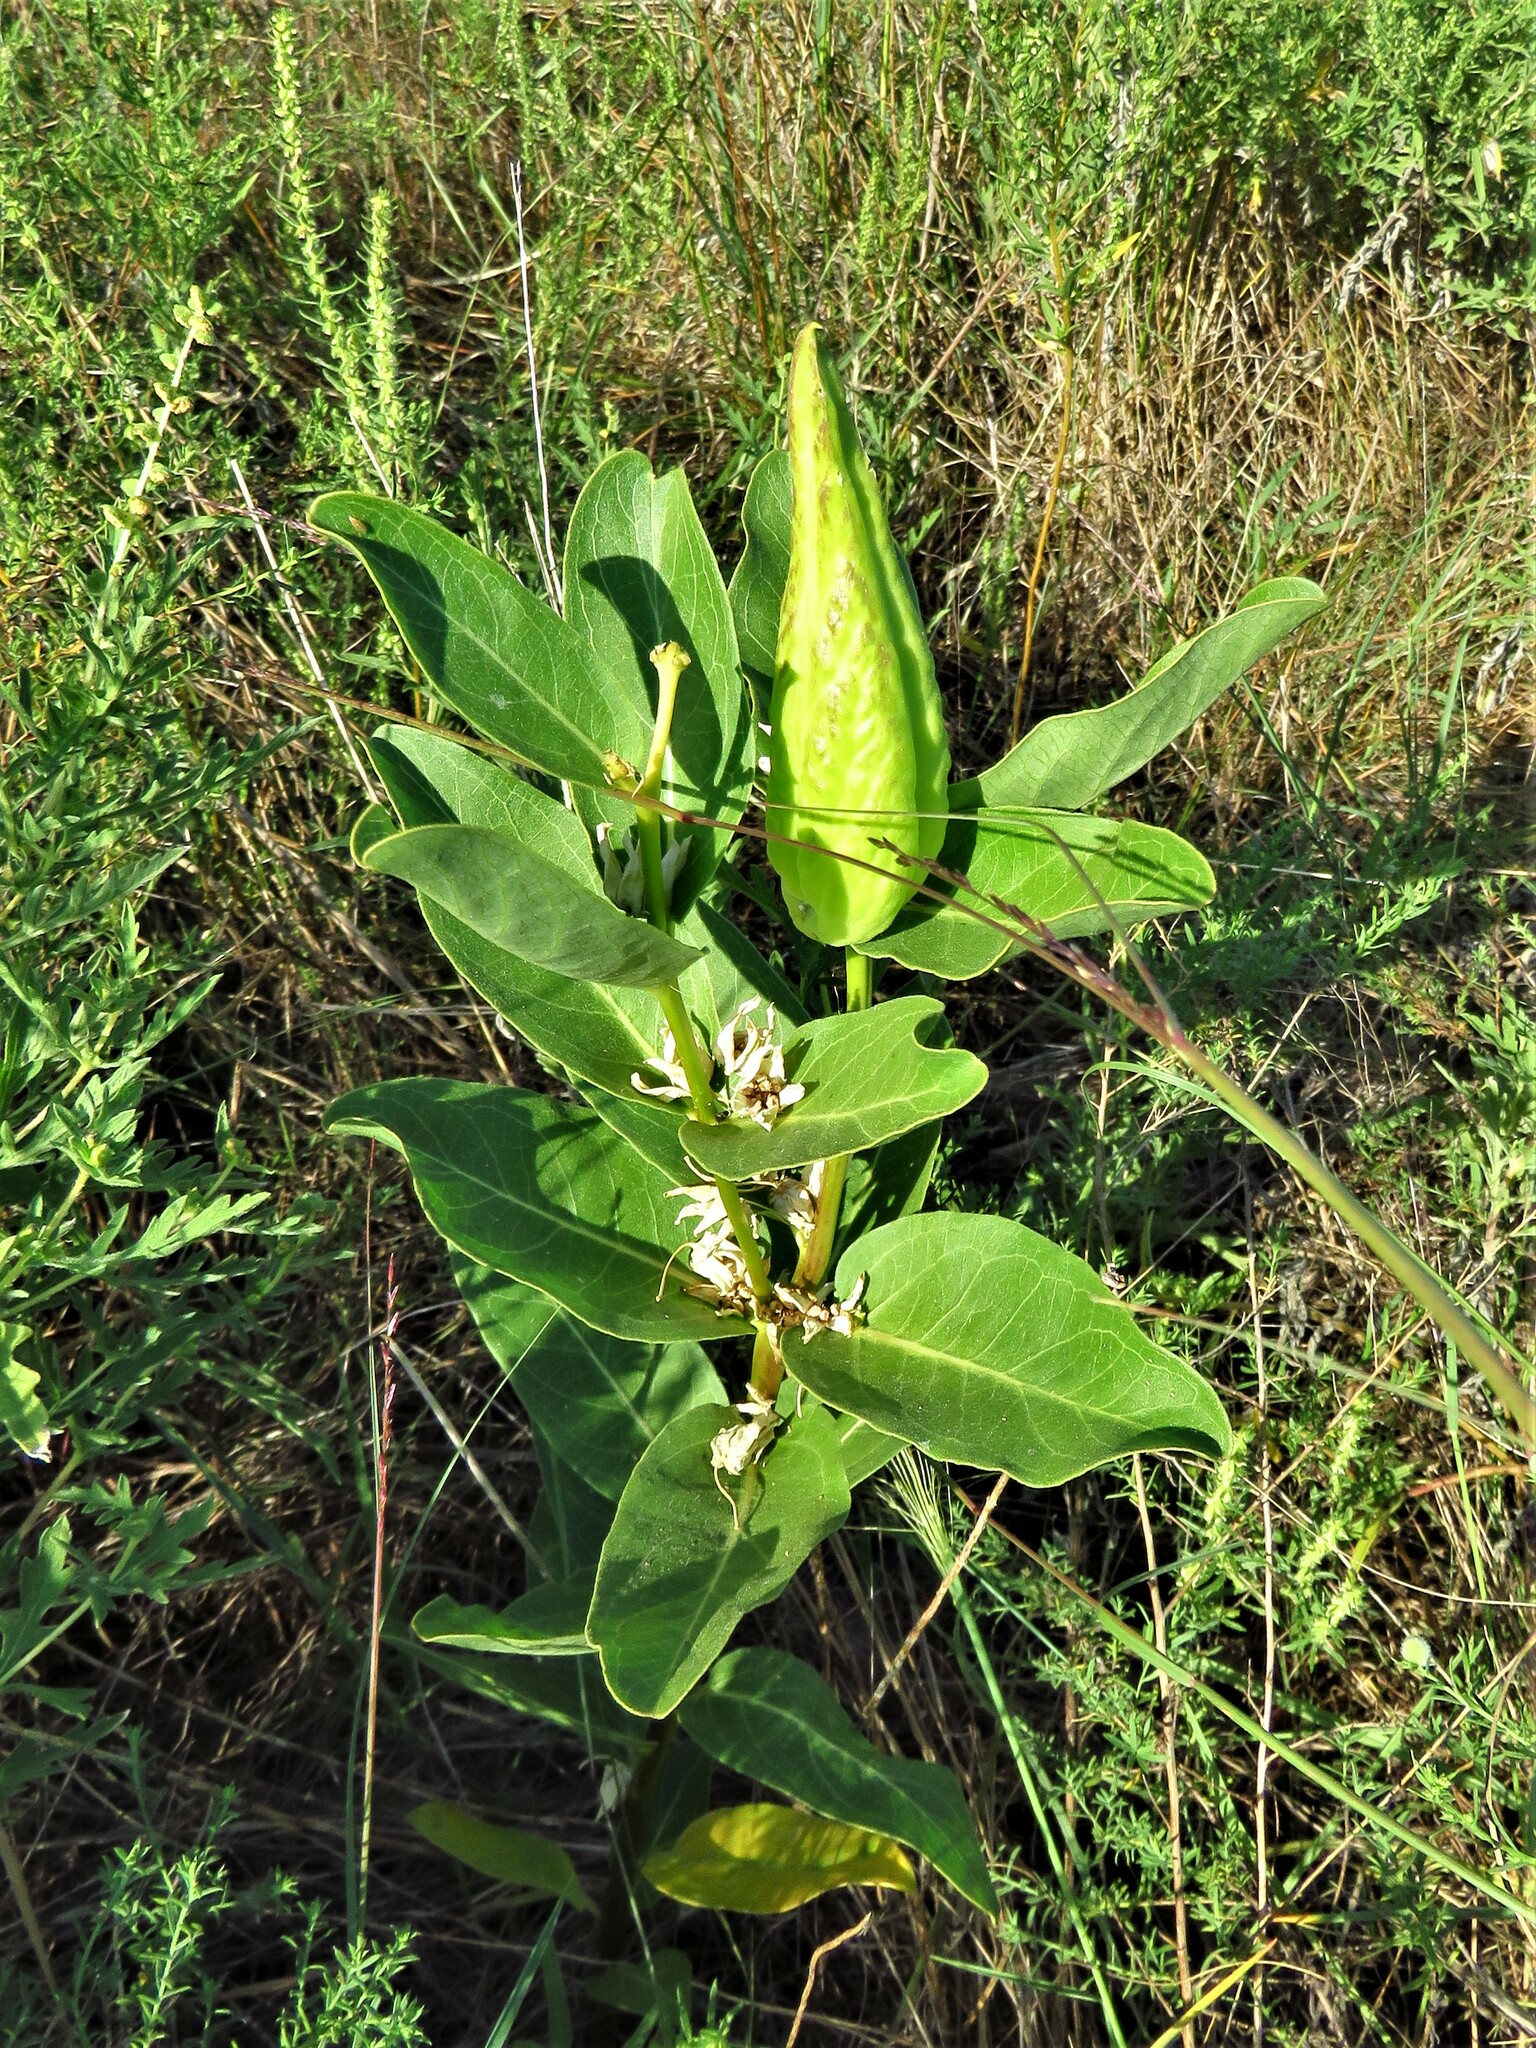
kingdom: Plantae
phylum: Tracheophyta
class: Magnoliopsida
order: Gentianales
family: Apocynaceae
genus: Asclepias
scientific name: Asclepias viridis
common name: Antelope-horns
